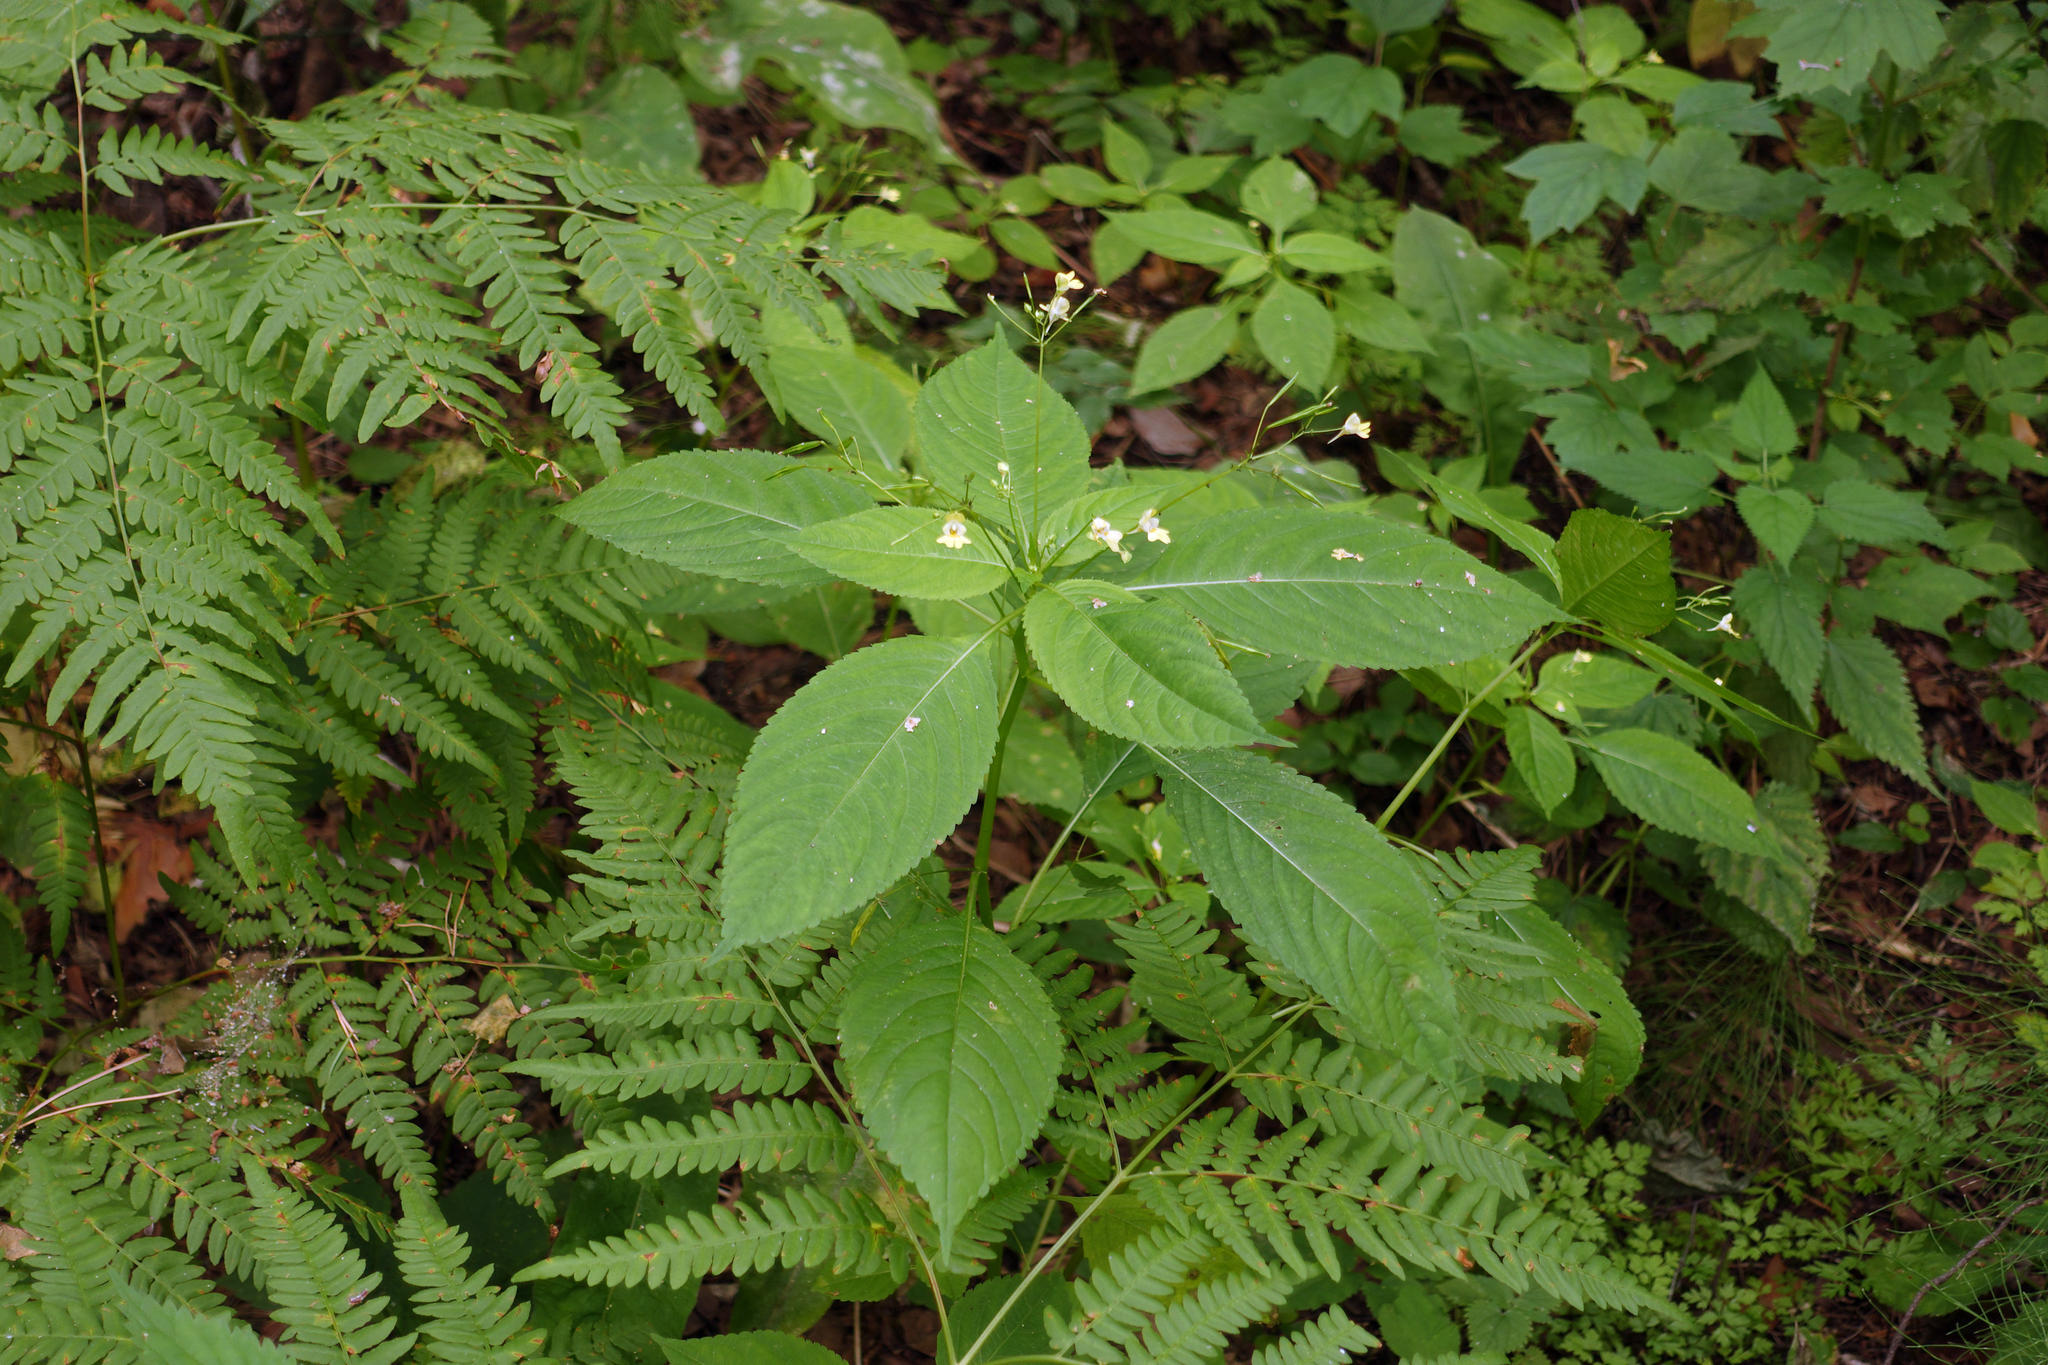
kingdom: Plantae
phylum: Tracheophyta
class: Magnoliopsida
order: Ericales
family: Balsaminaceae
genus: Impatiens
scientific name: Impatiens parviflora
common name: Small balsam
